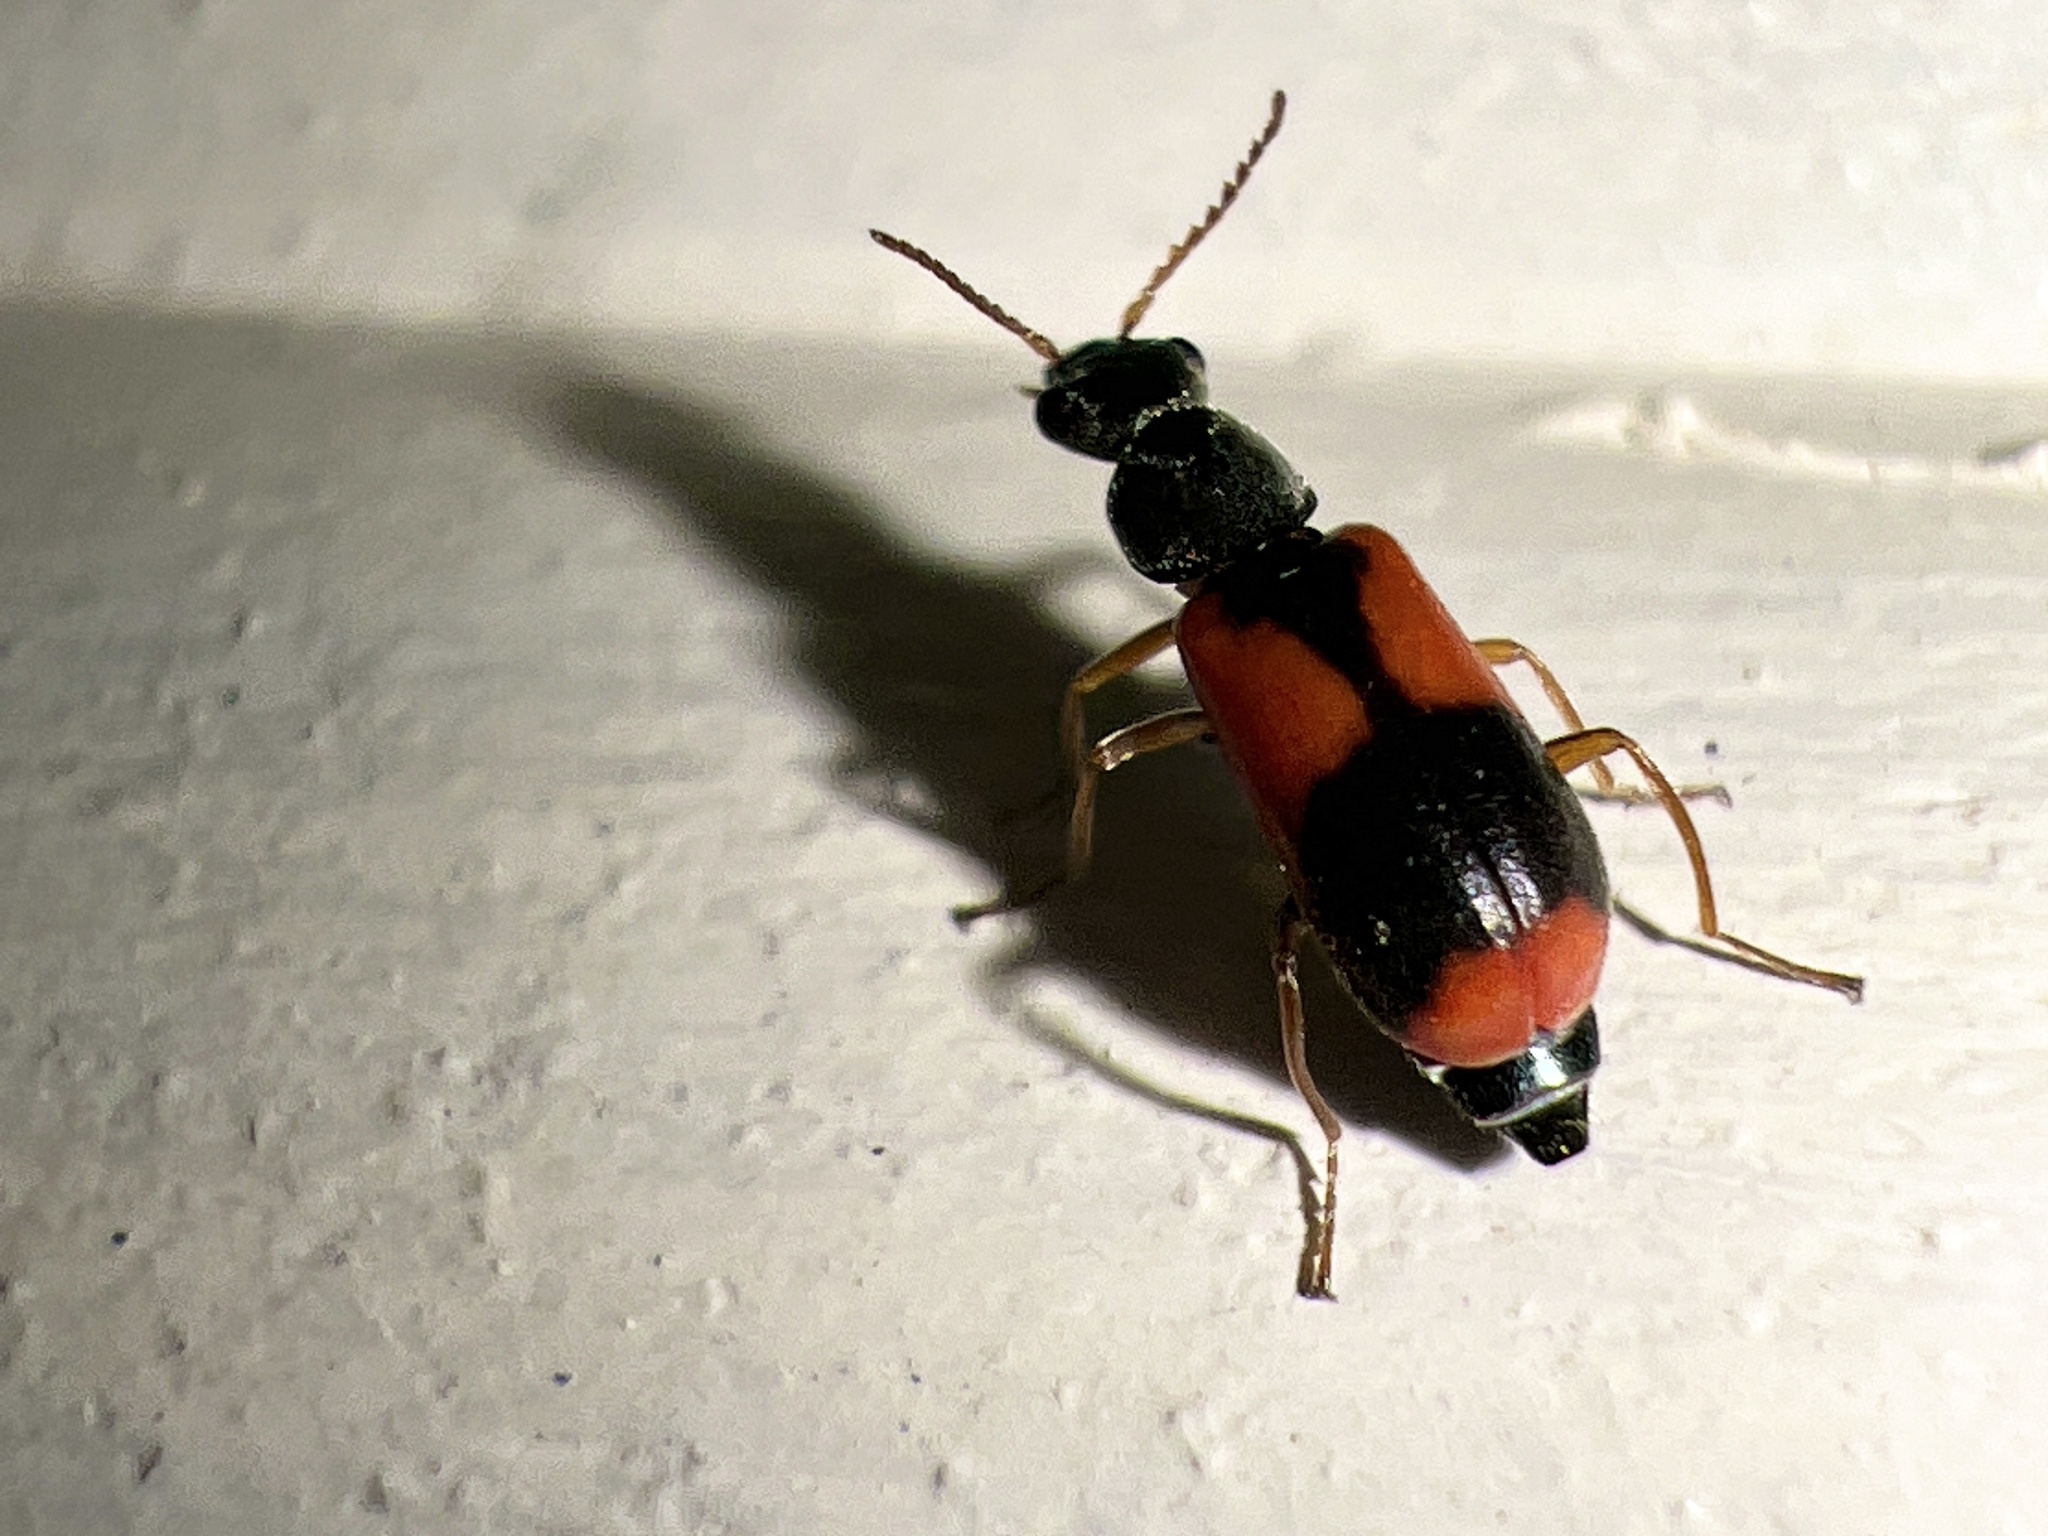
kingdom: Animalia
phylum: Arthropoda
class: Insecta
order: Coleoptera
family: Melyridae
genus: Anthocomus
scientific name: Anthocomus equestris
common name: Black-banded soft-winged flower beetle
